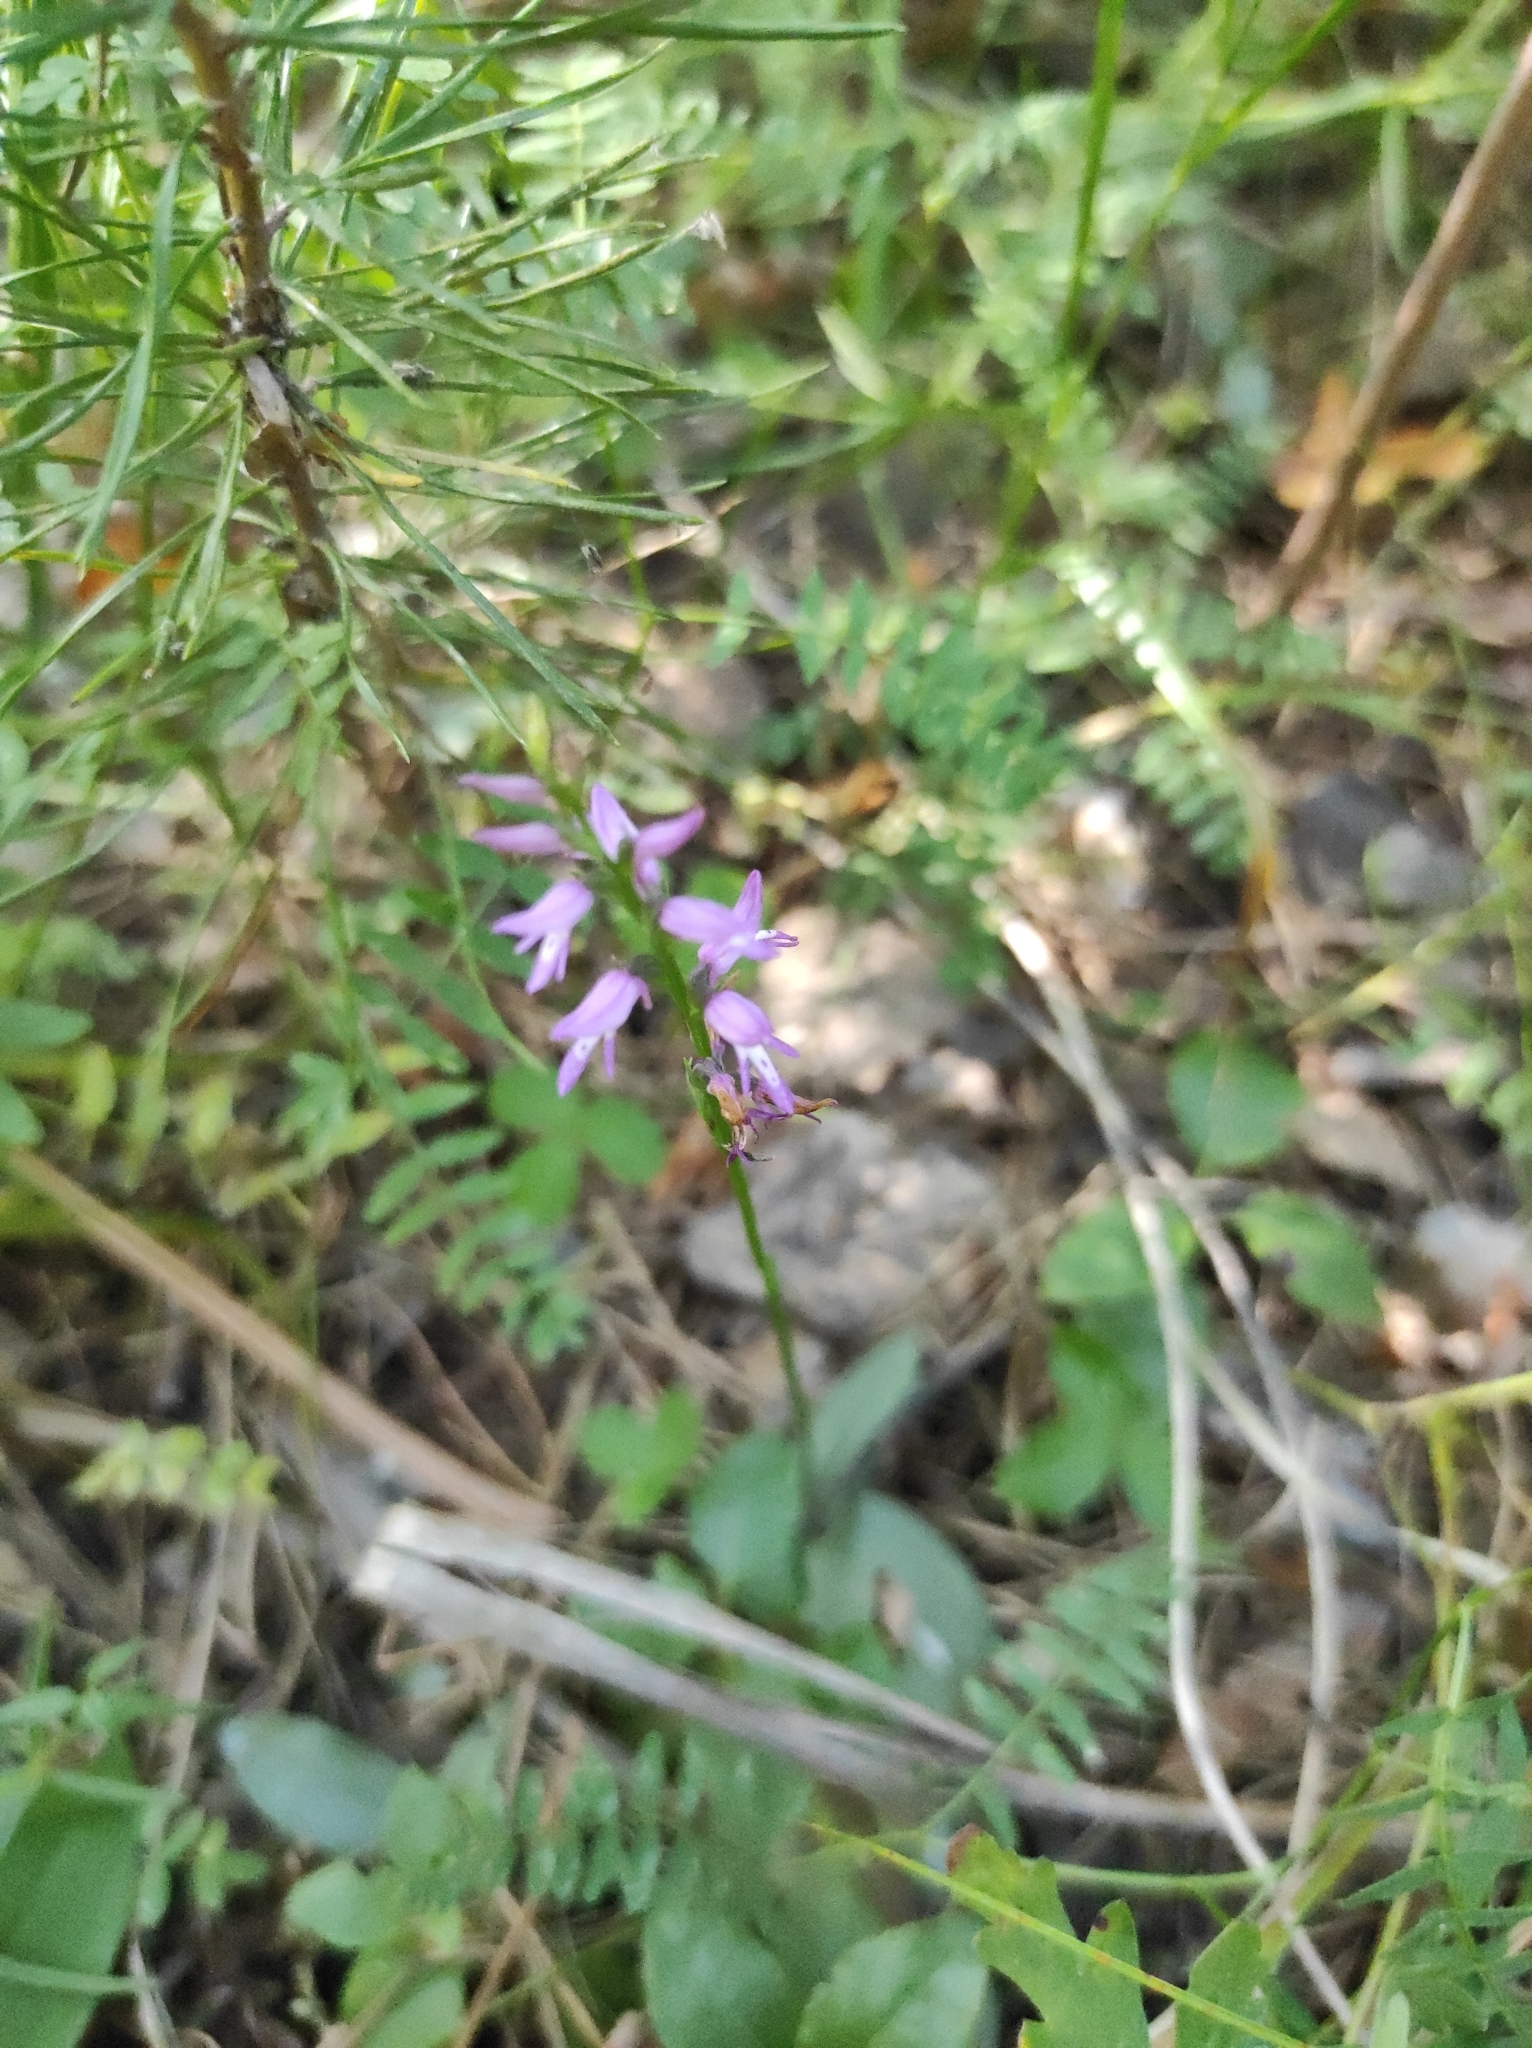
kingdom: Plantae
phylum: Tracheophyta
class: Liliopsida
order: Asparagales
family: Orchidaceae
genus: Hemipilia
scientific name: Hemipilia cucullata
